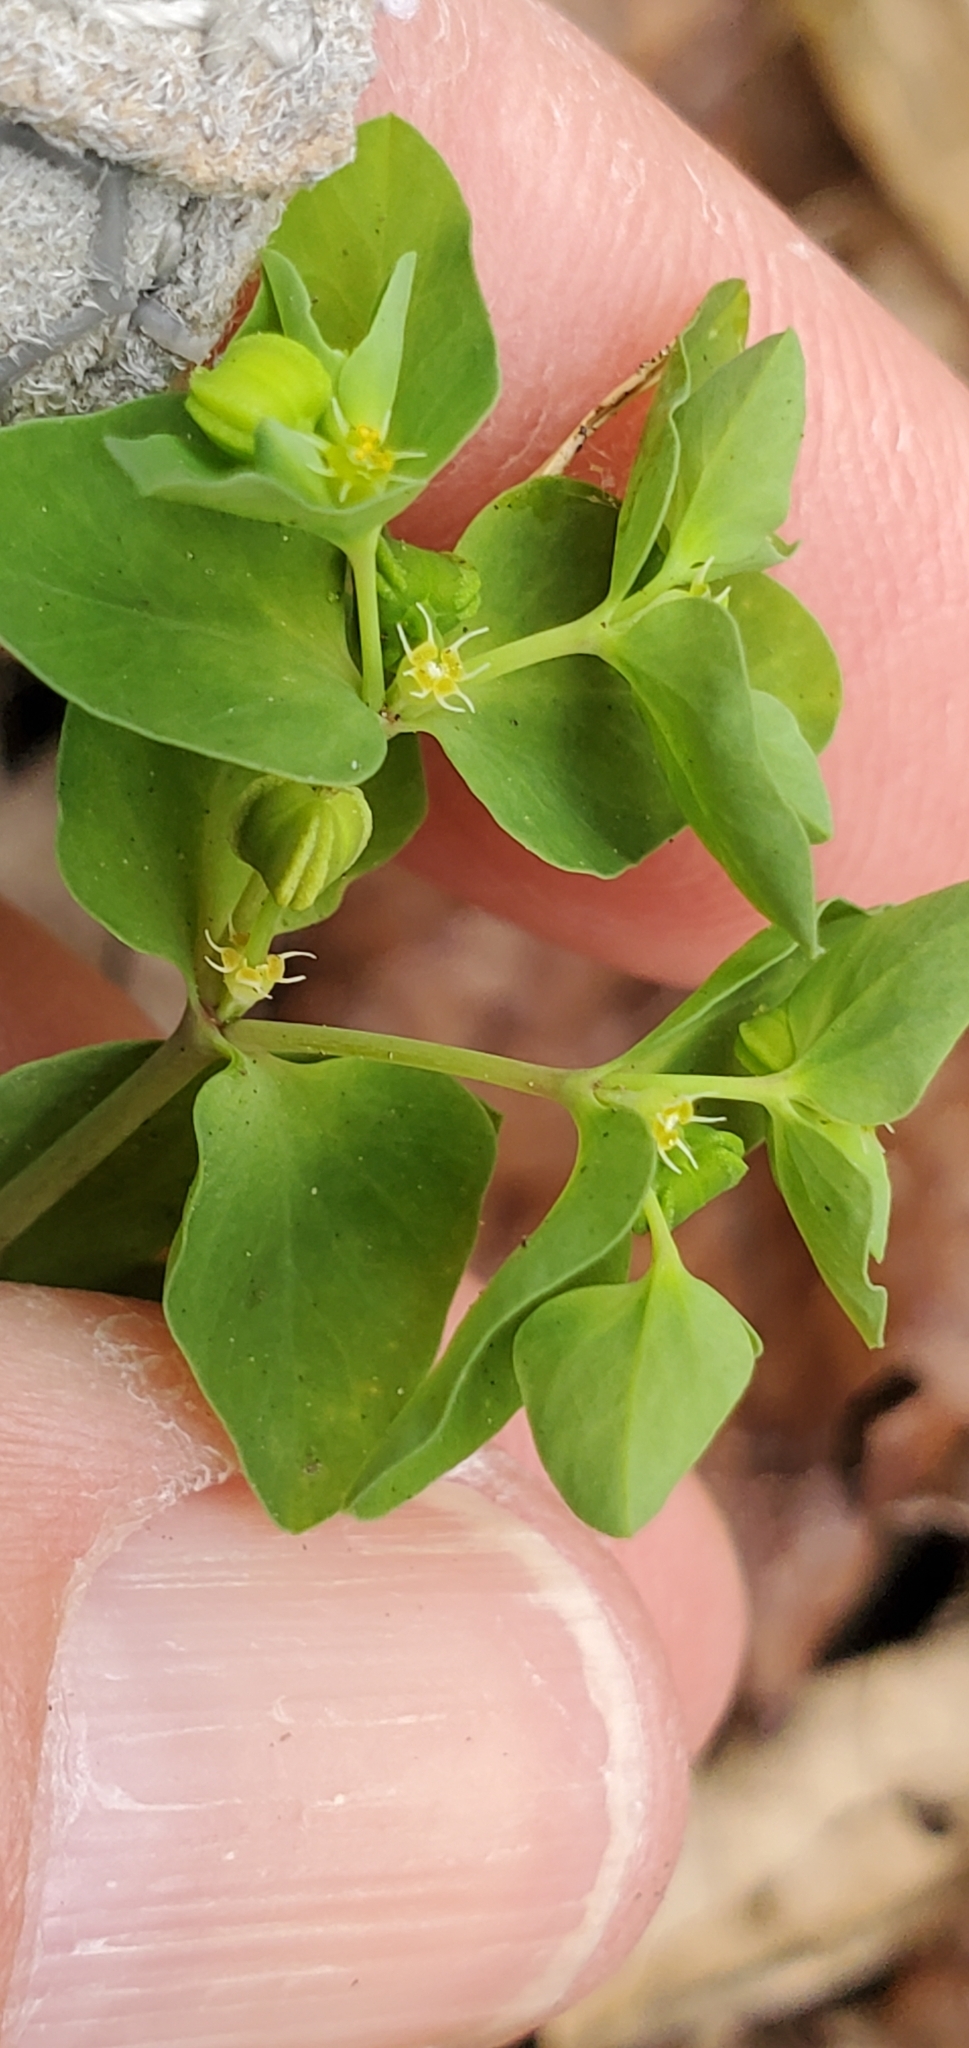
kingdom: Plantae
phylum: Tracheophyta
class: Magnoliopsida
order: Malpighiales
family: Euphorbiaceae
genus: Euphorbia
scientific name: Euphorbia peplus
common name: Petty spurge
